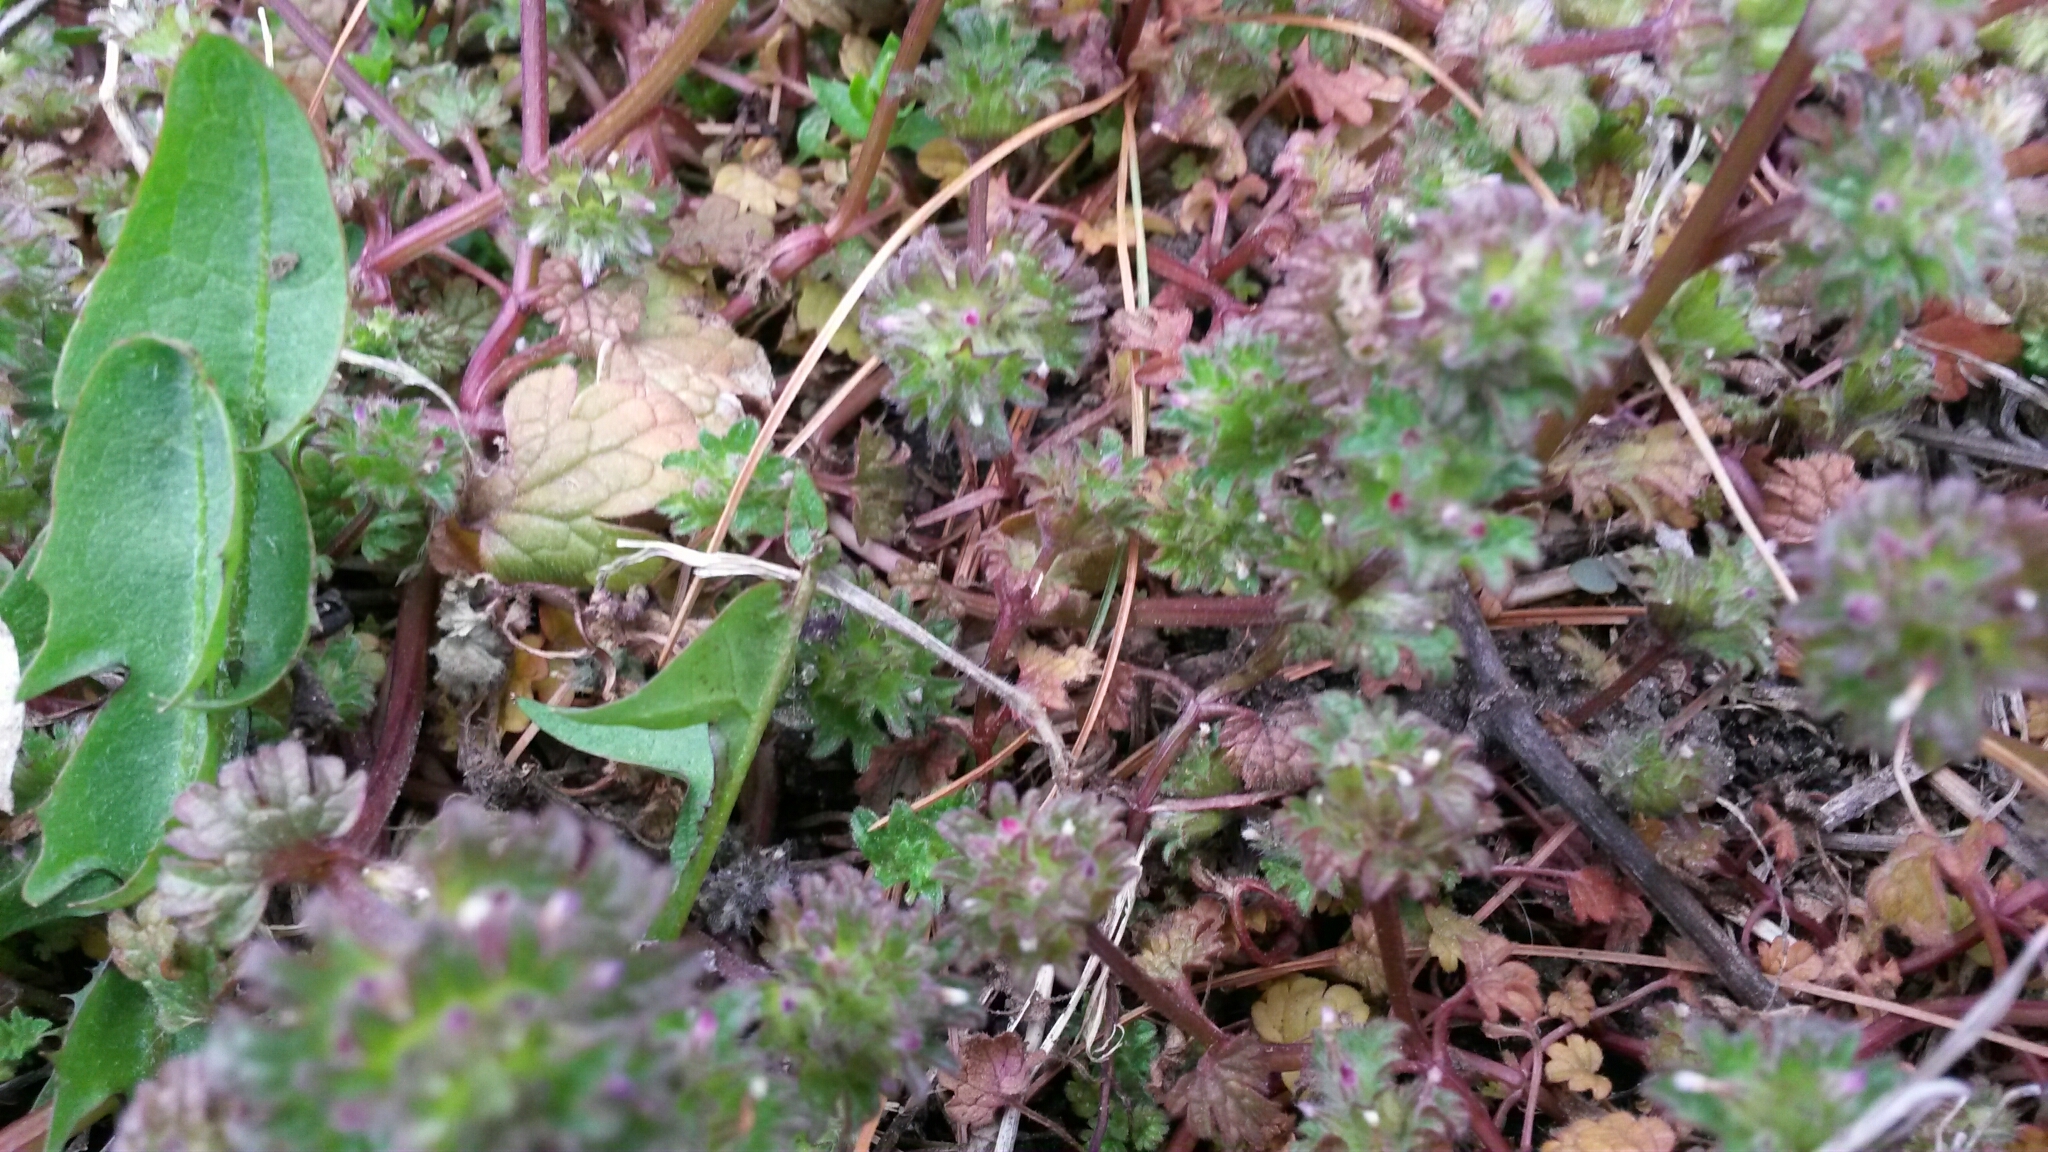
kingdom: Plantae
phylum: Tracheophyta
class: Magnoliopsida
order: Lamiales
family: Lamiaceae
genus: Lamium
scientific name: Lamium amplexicaule
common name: Henbit dead-nettle
